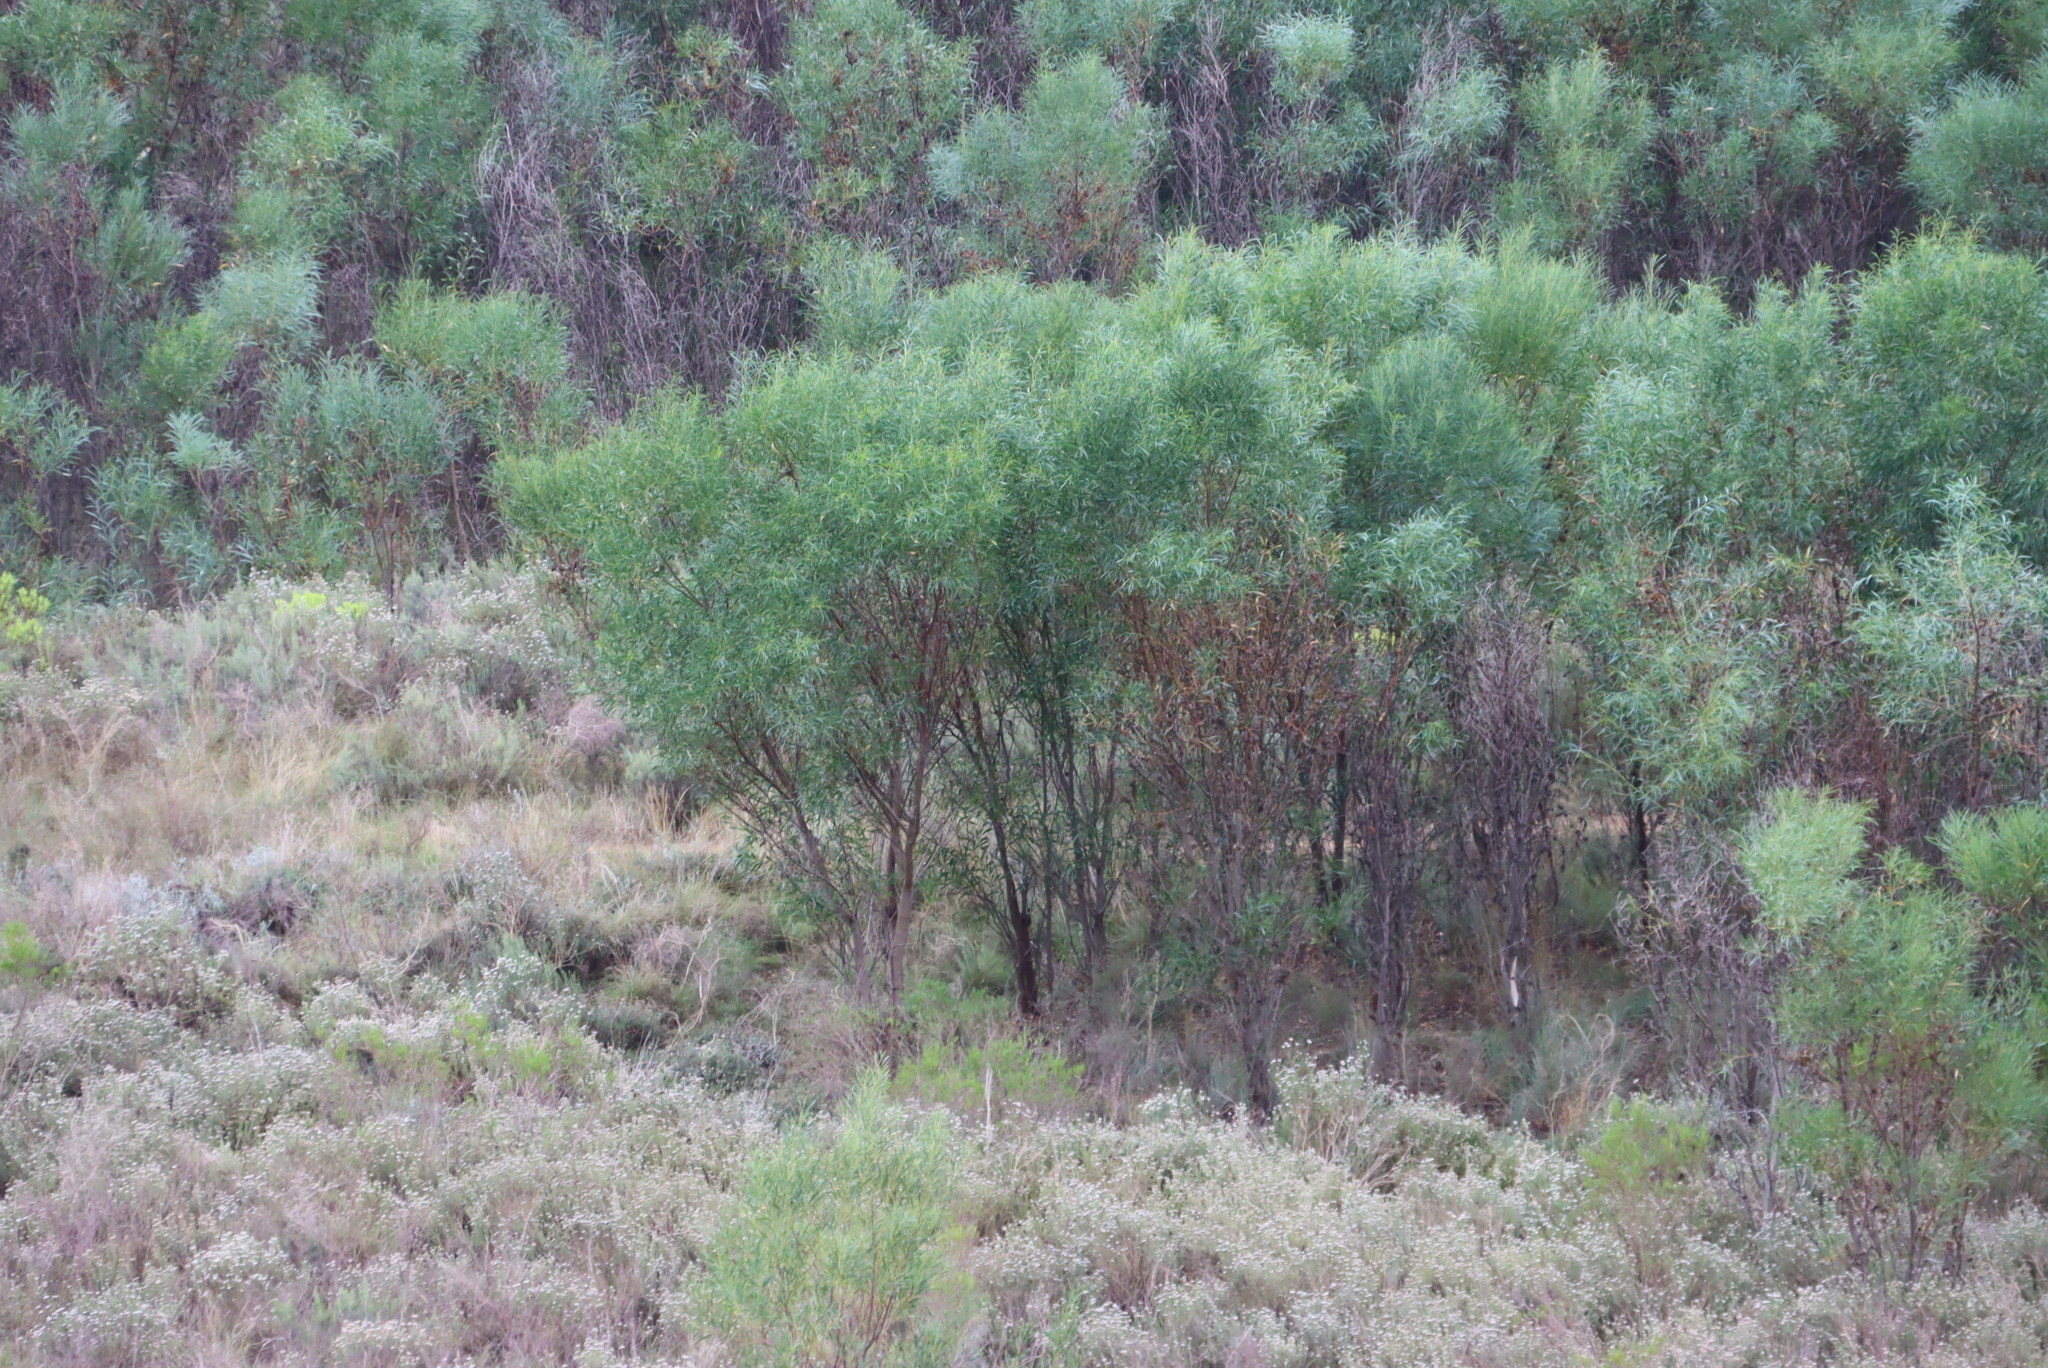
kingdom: Plantae
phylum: Tracheophyta
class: Magnoliopsida
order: Fabales
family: Fabaceae
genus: Acacia
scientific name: Acacia saligna
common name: Orange wattle
